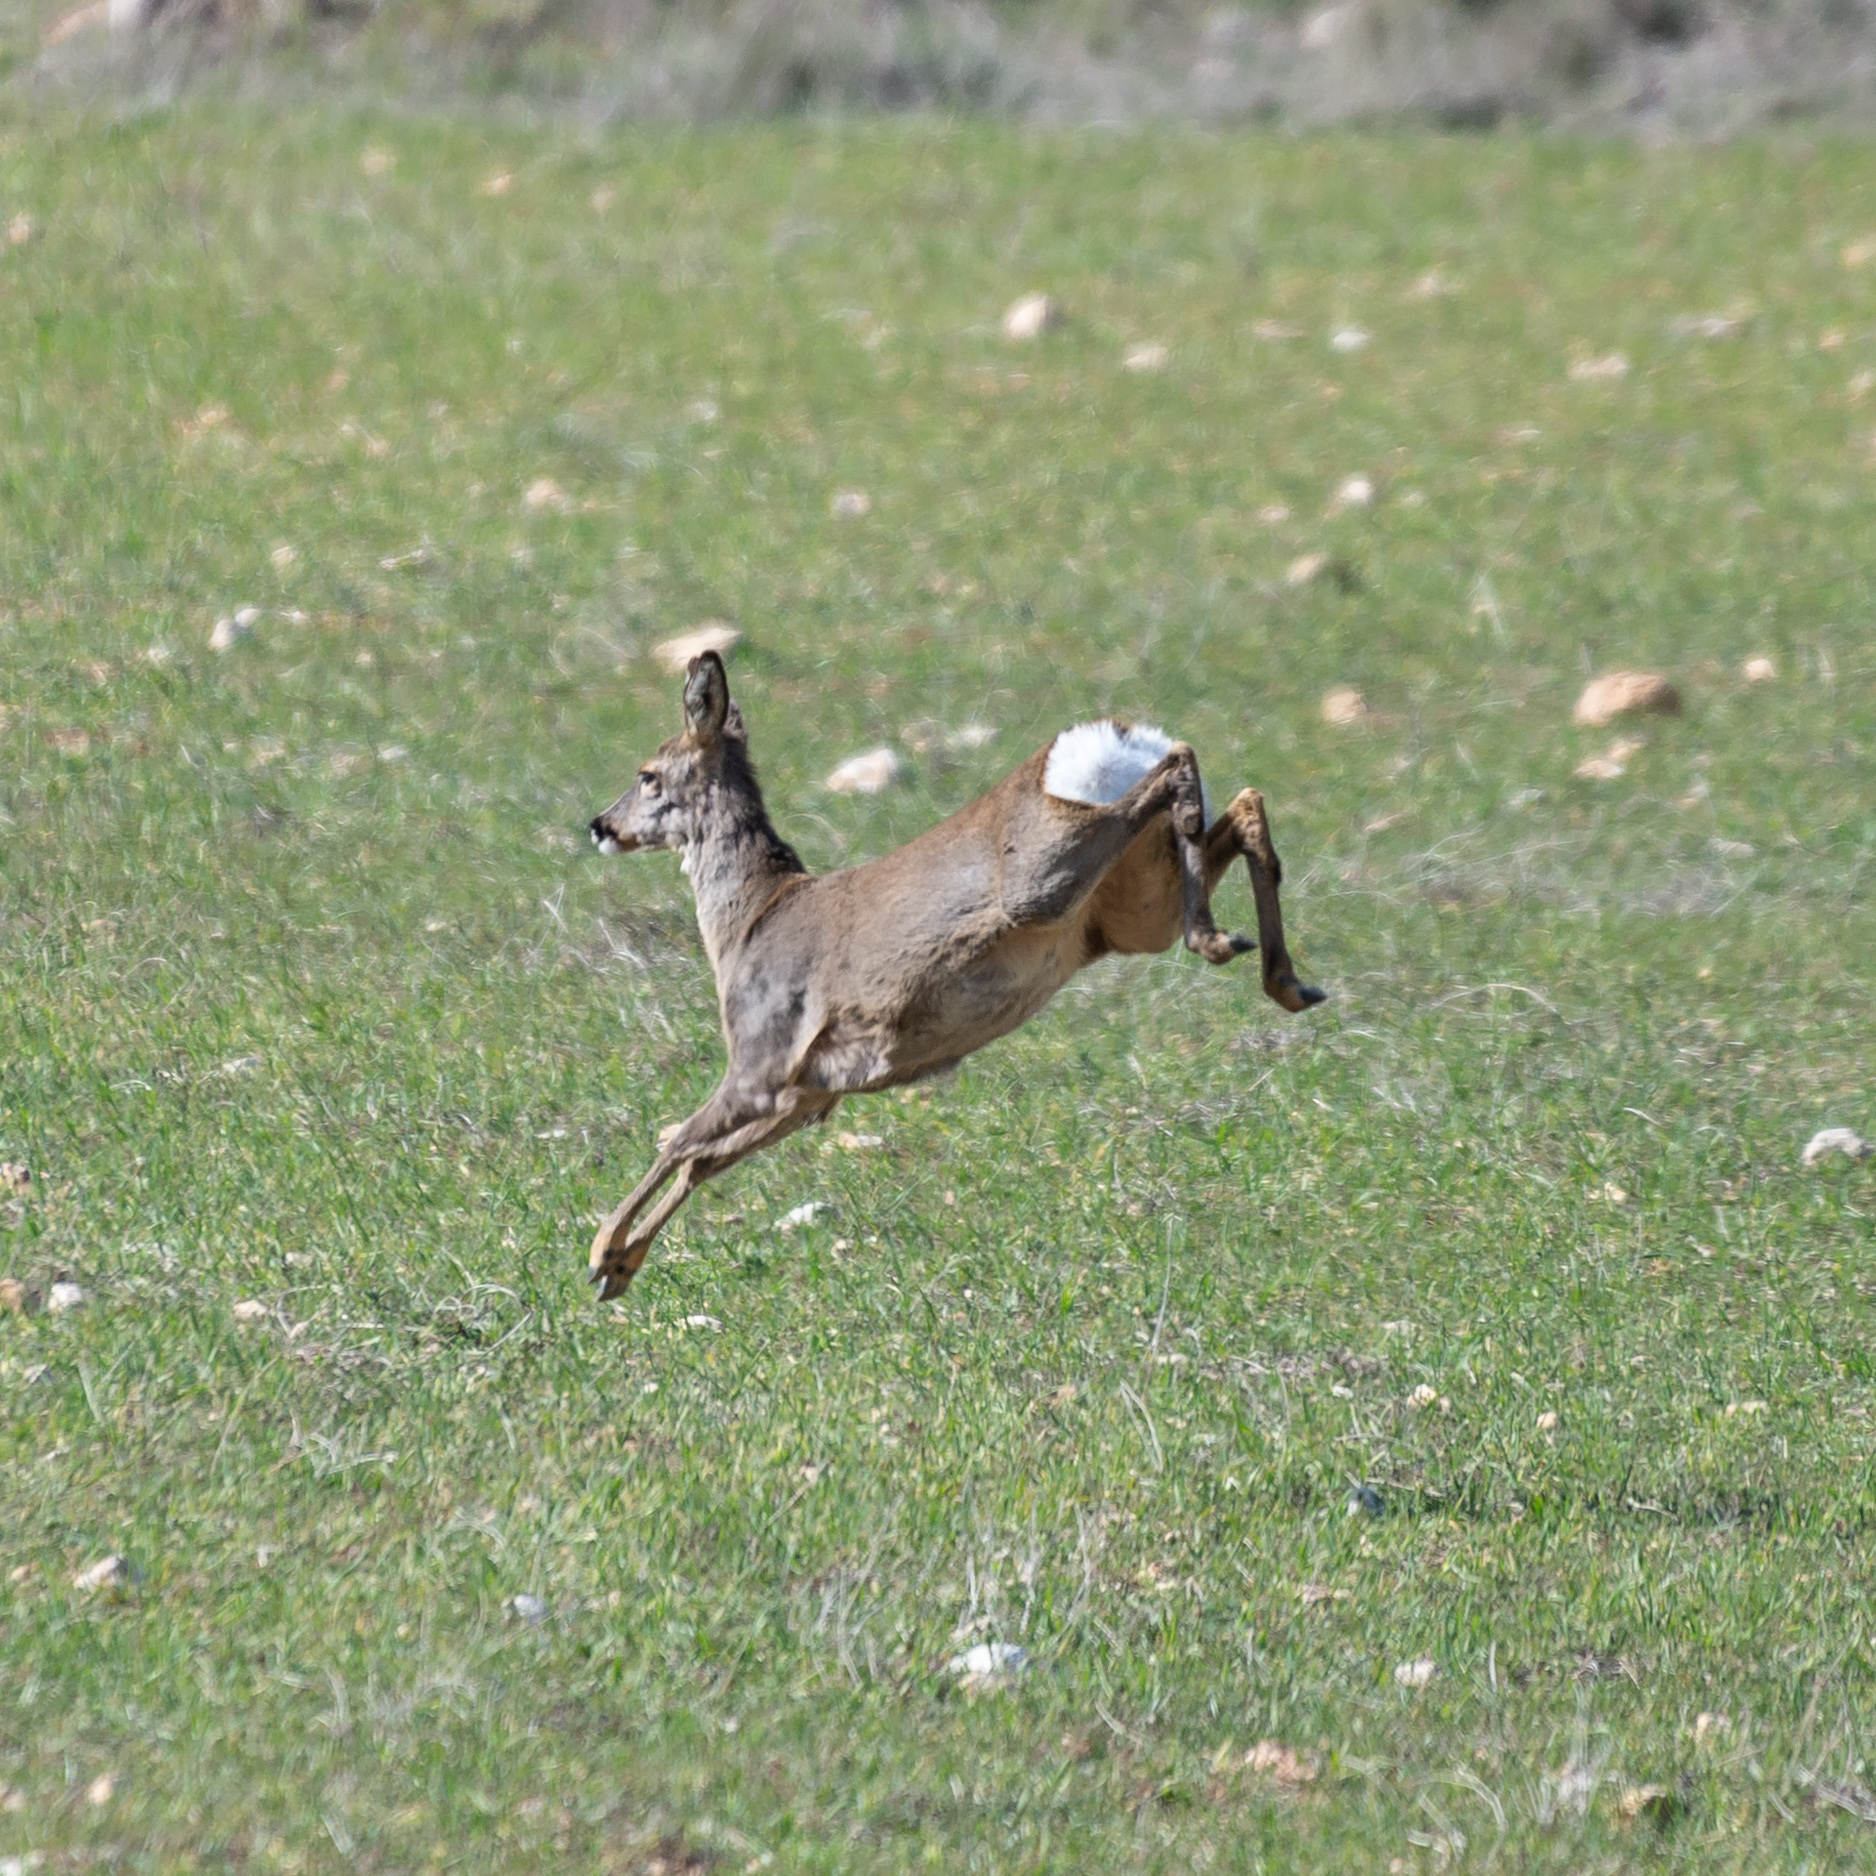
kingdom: Animalia
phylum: Chordata
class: Mammalia
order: Artiodactyla
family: Cervidae
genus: Capreolus
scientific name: Capreolus capreolus
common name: Western roe deer
